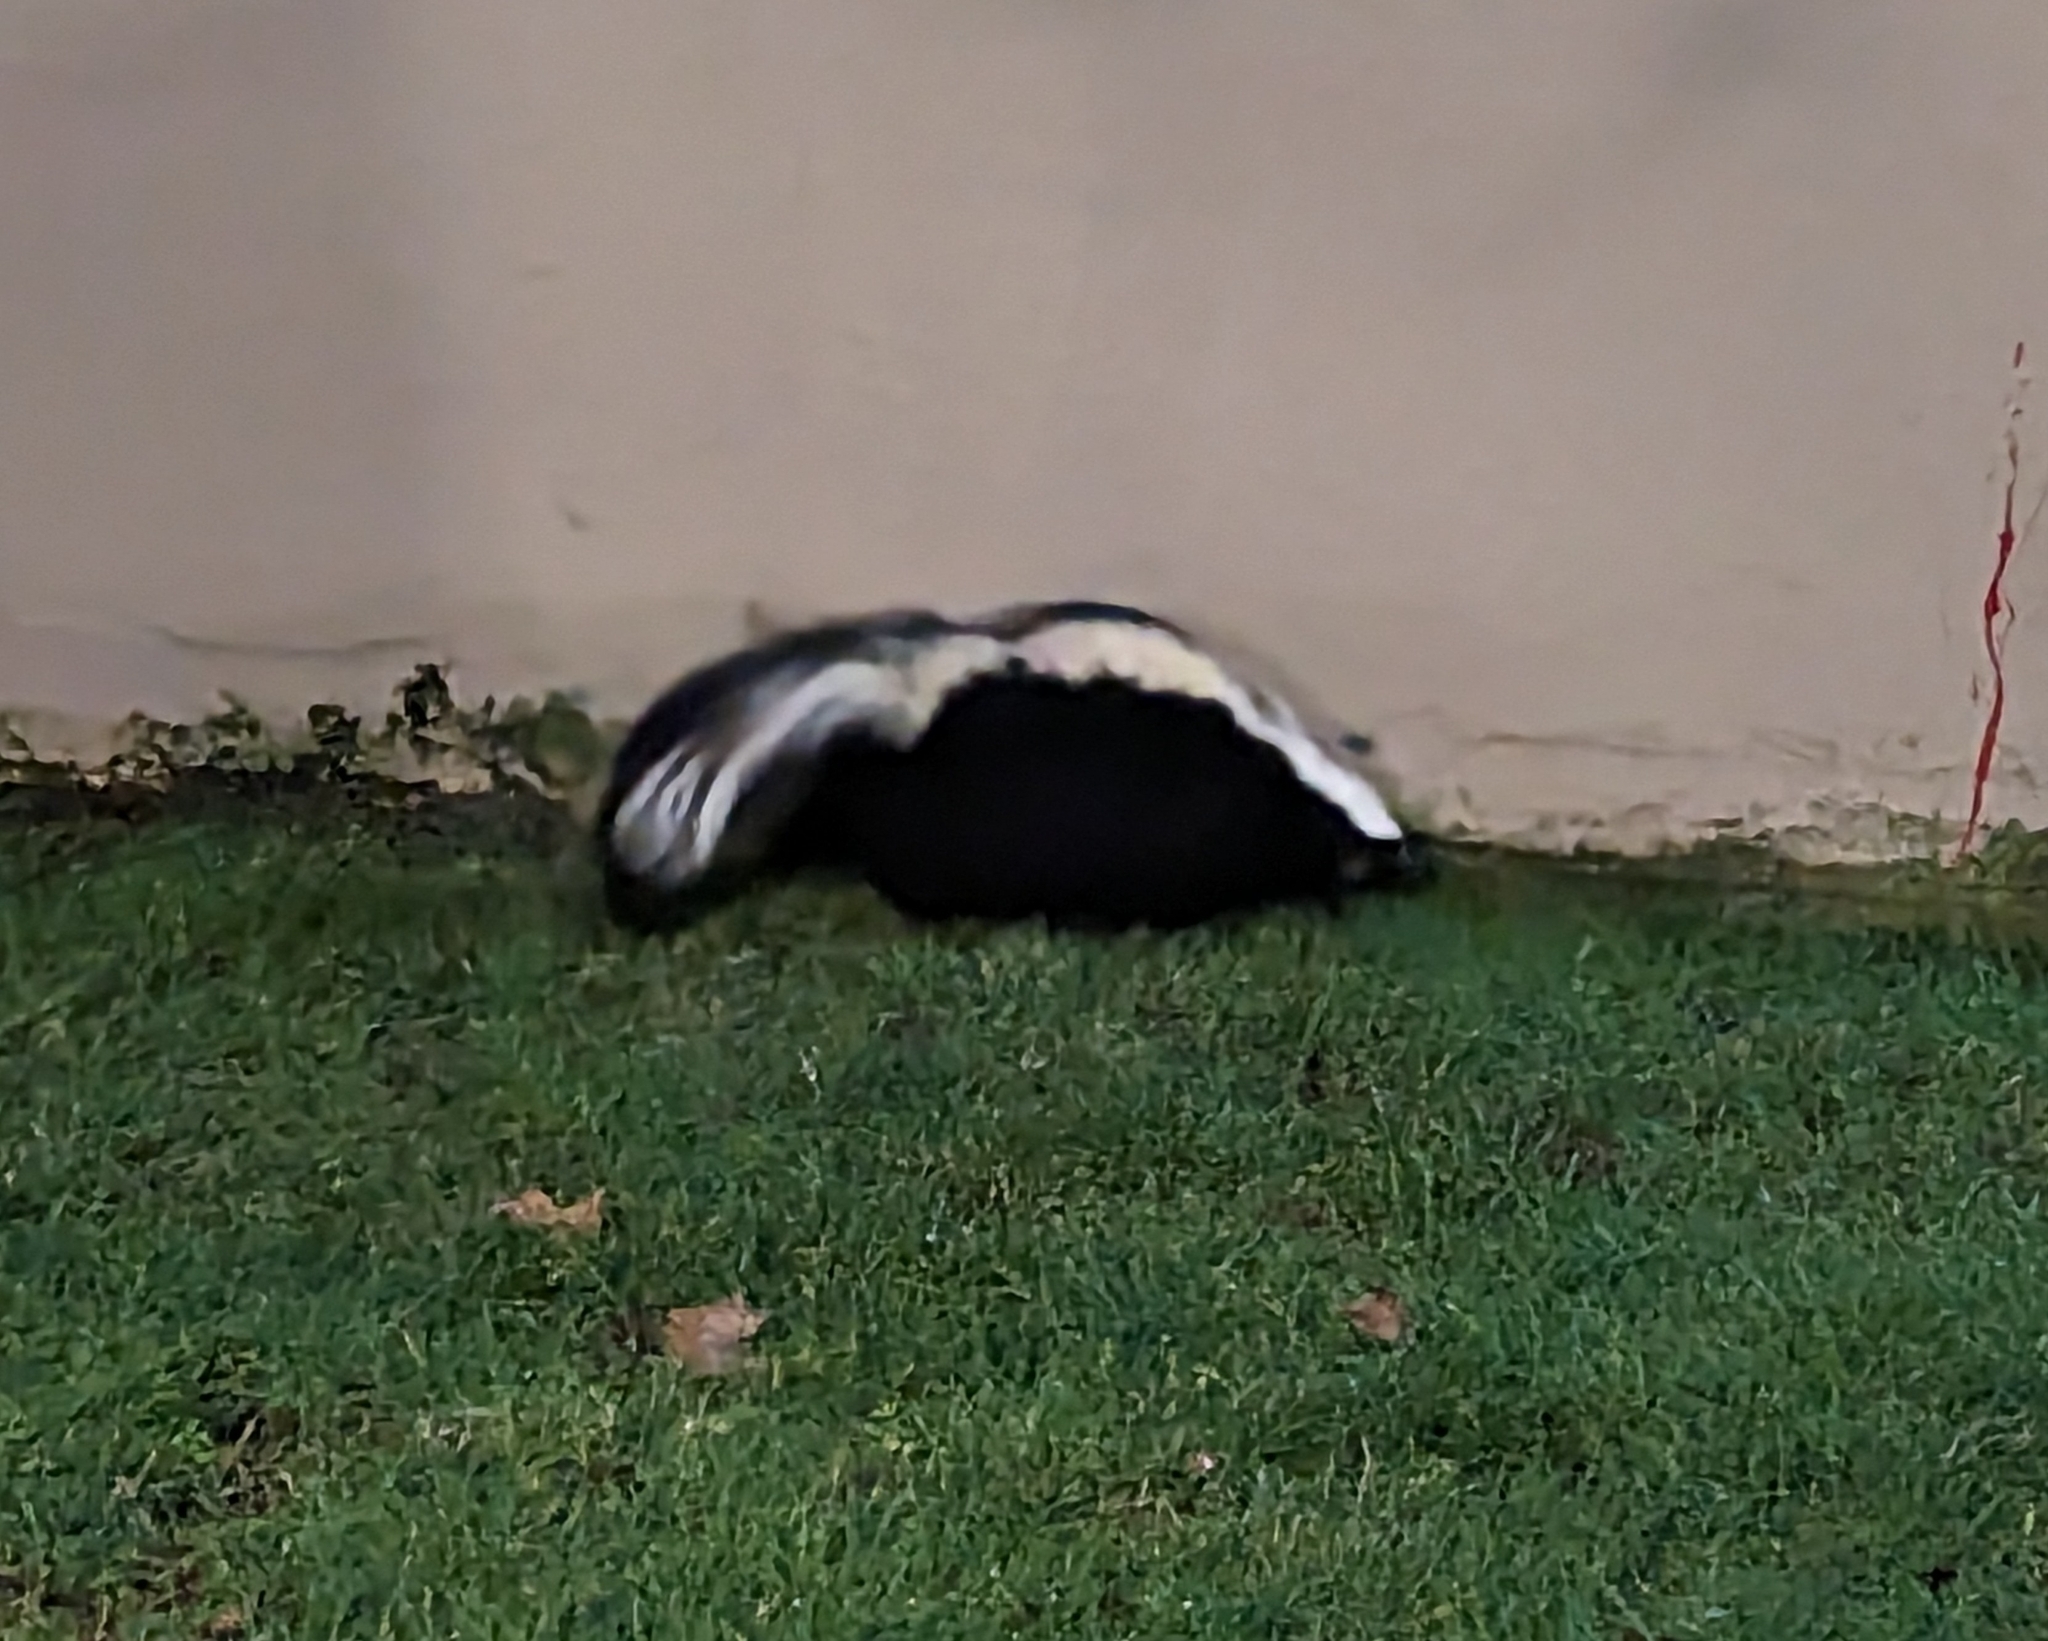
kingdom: Animalia
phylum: Chordata
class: Mammalia
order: Carnivora
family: Mephitidae
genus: Mephitis
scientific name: Mephitis mephitis
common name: Striped skunk
